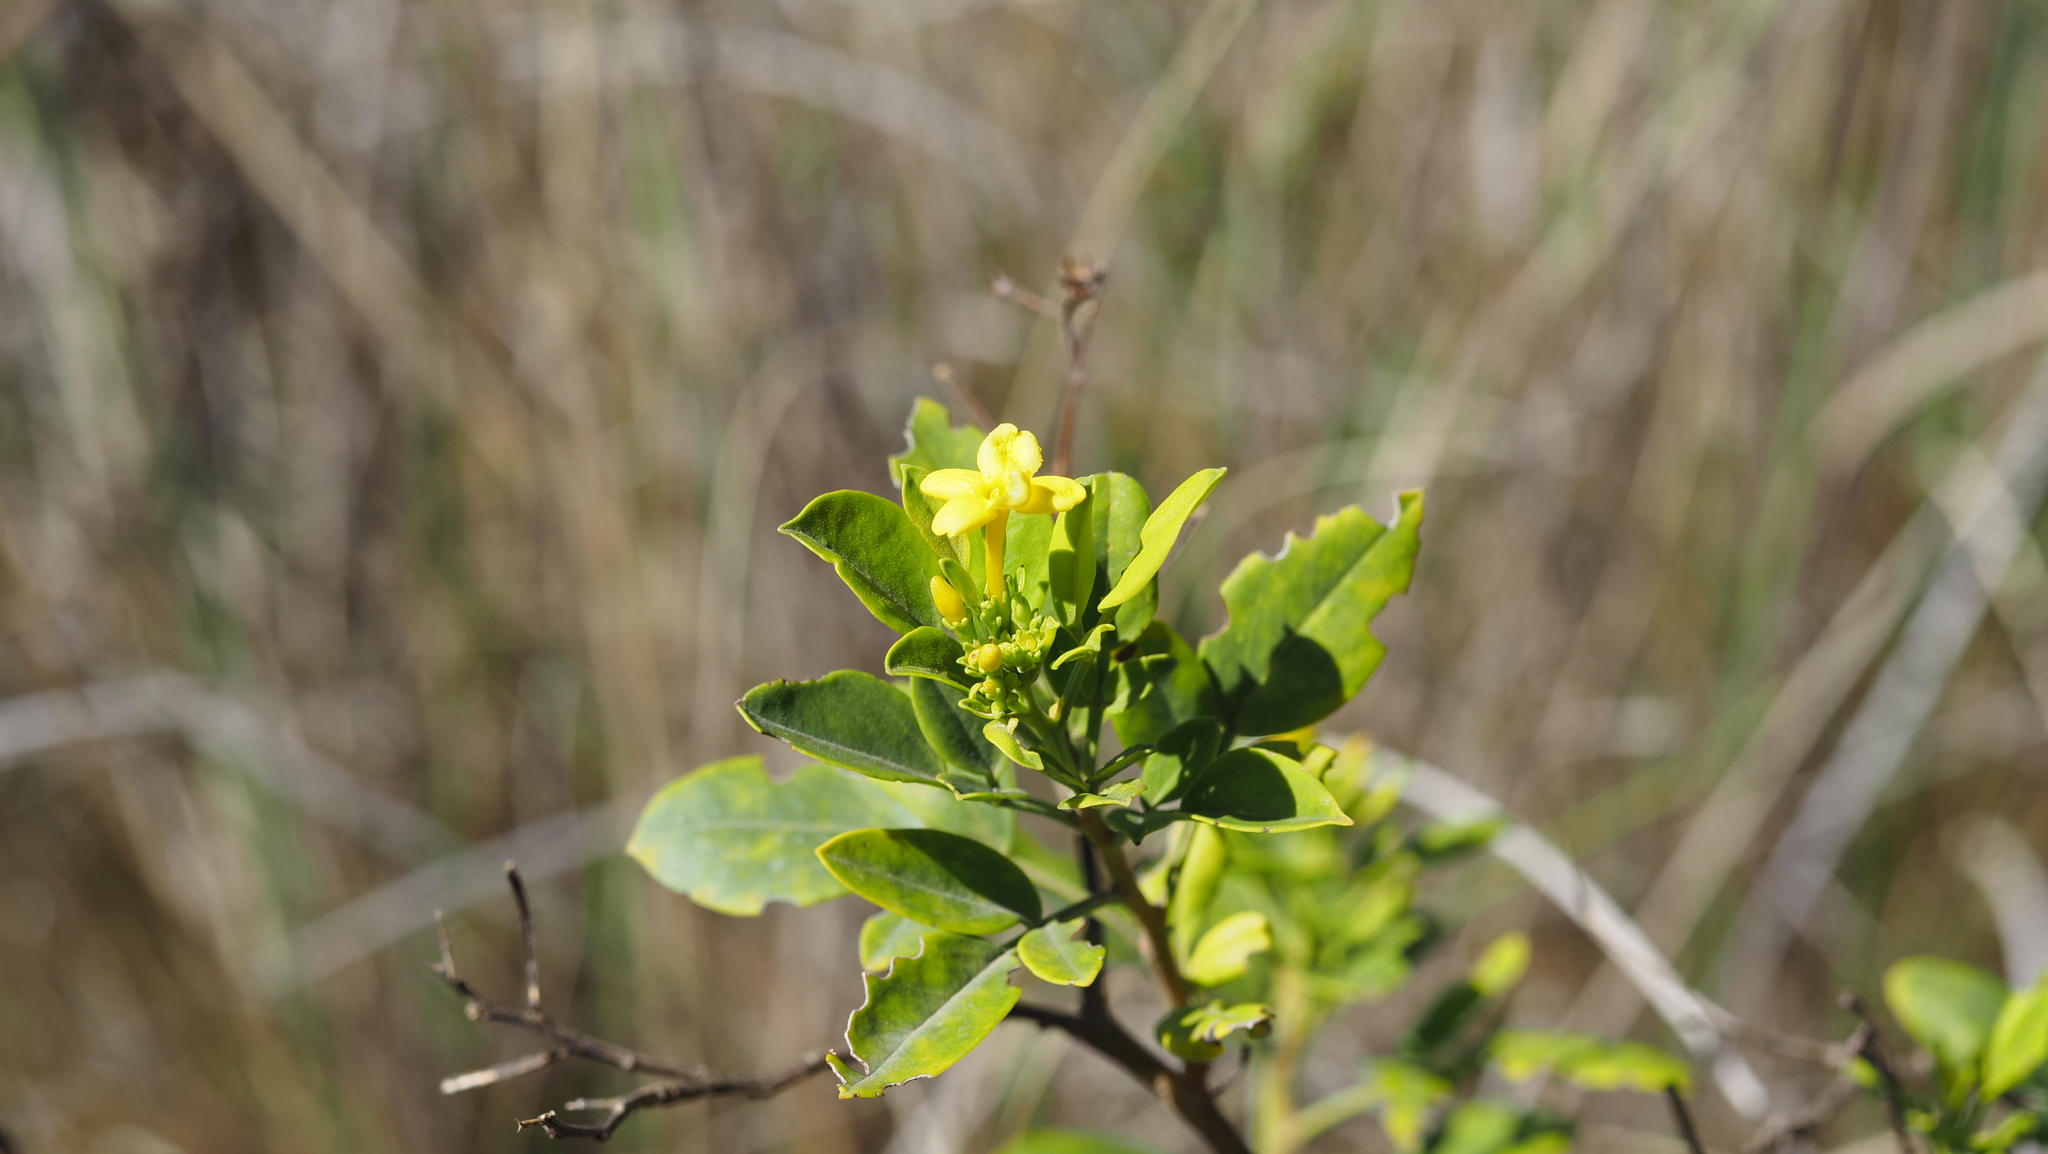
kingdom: Plantae
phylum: Tracheophyta
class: Magnoliopsida
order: Lamiales
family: Oleaceae
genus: Chrysojasminum
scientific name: Chrysojasminum odoratissimum
